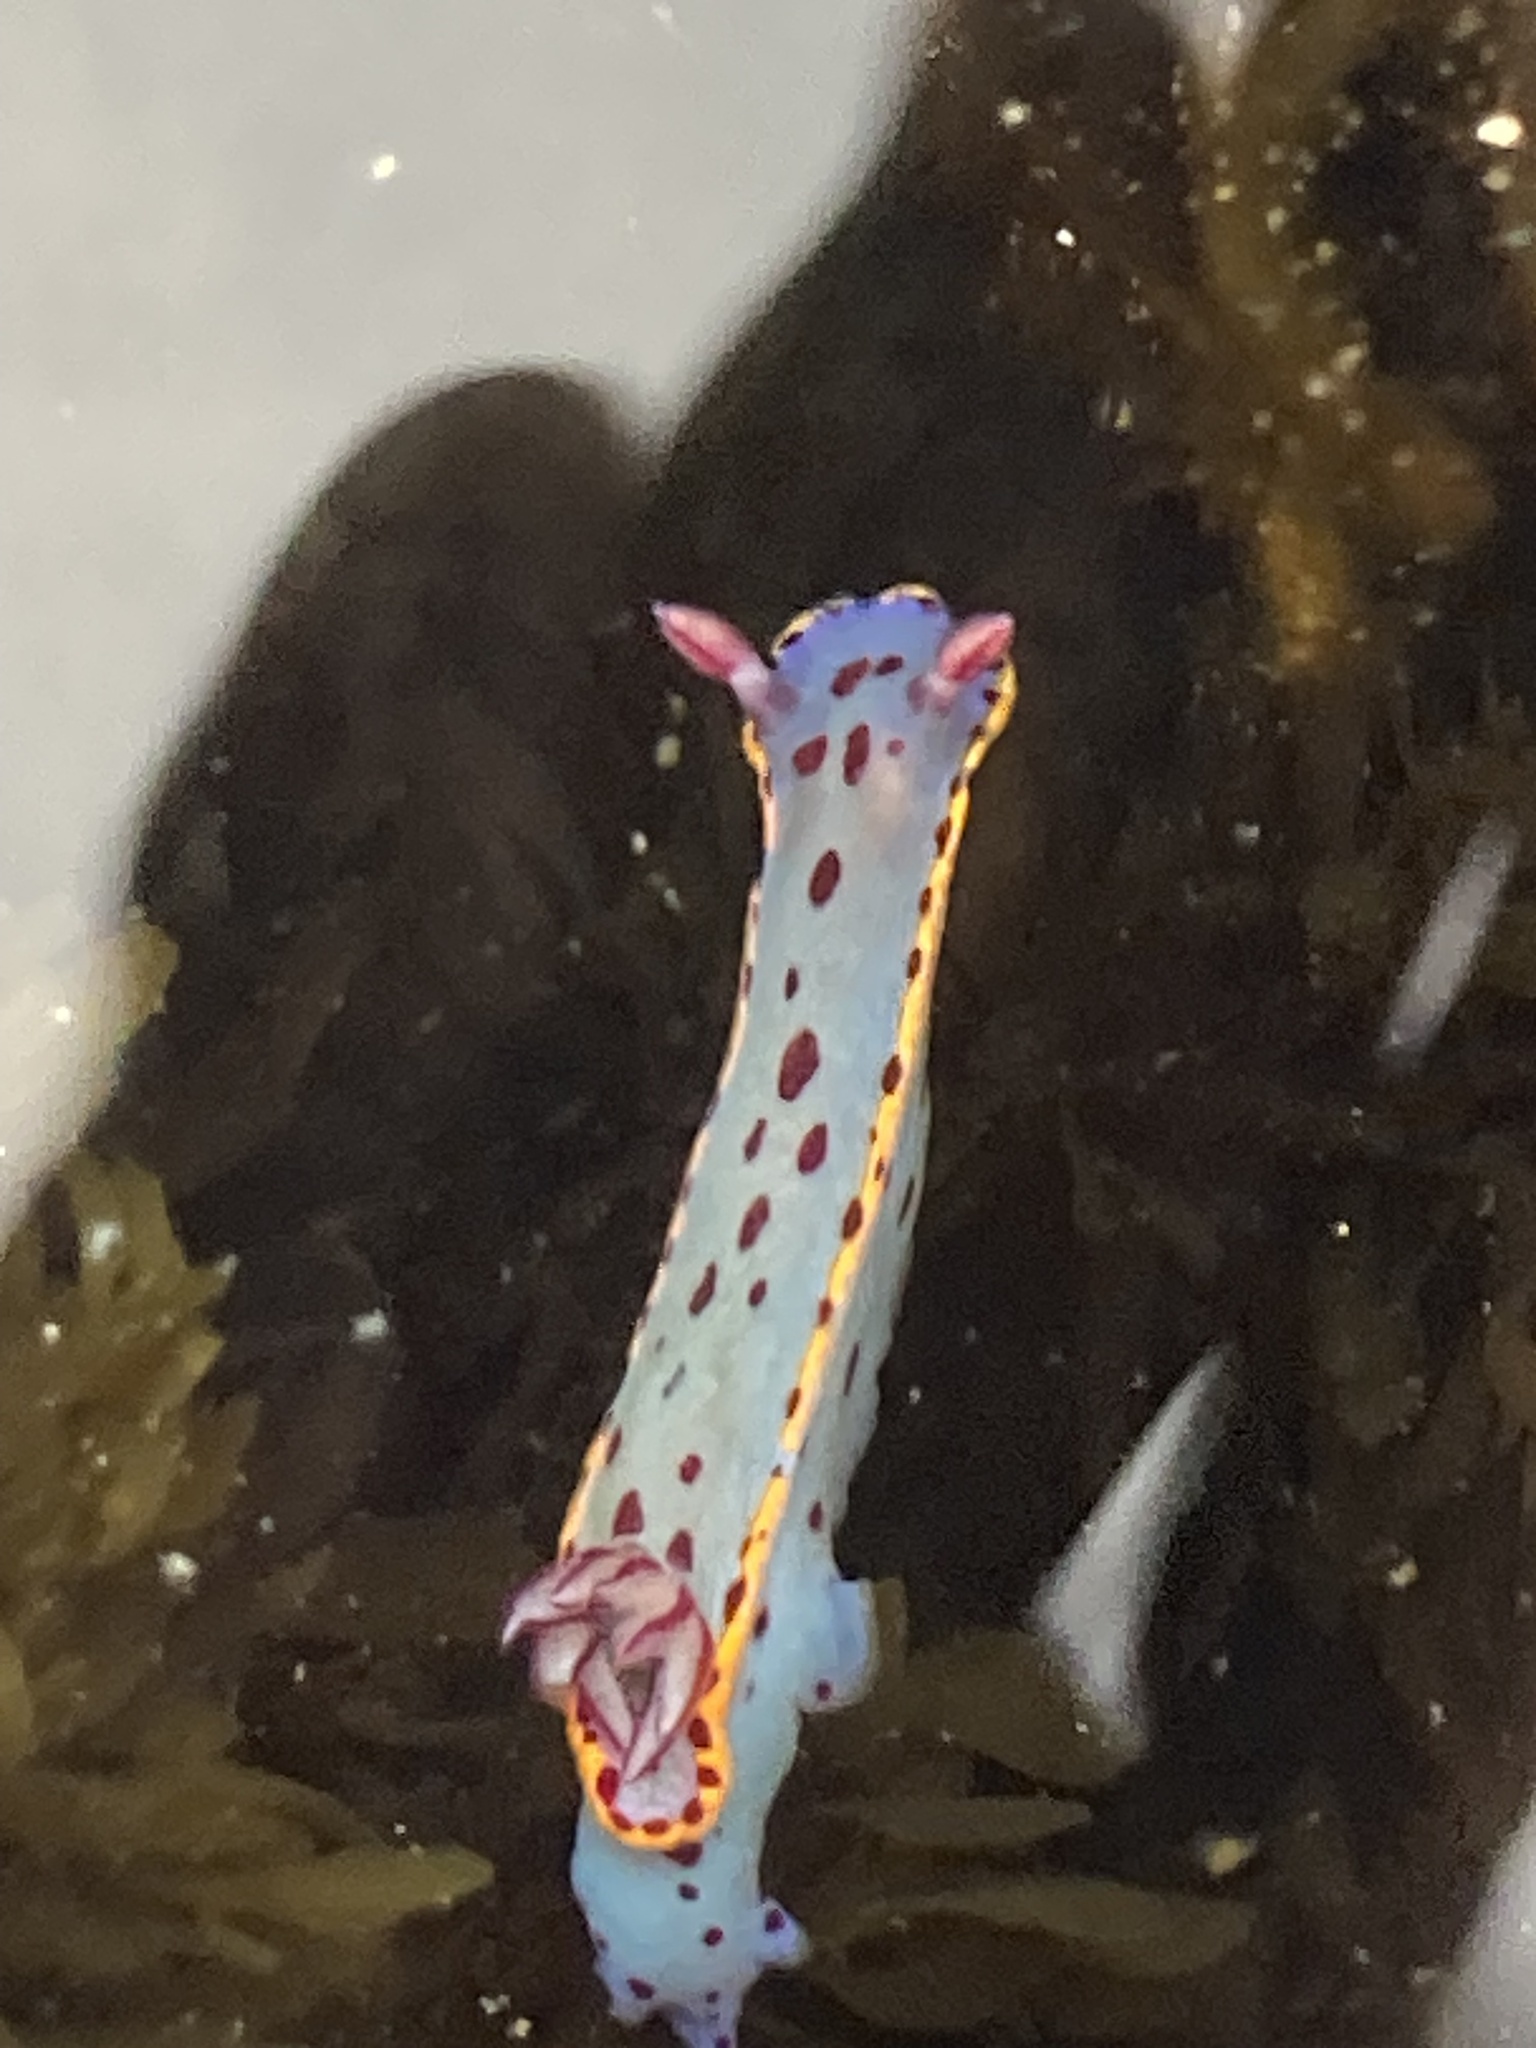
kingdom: Animalia
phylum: Mollusca
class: Gastropoda
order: Nudibranchia
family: Chromodorididae
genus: Hypselodoris
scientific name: Hypselodoris bennetti
